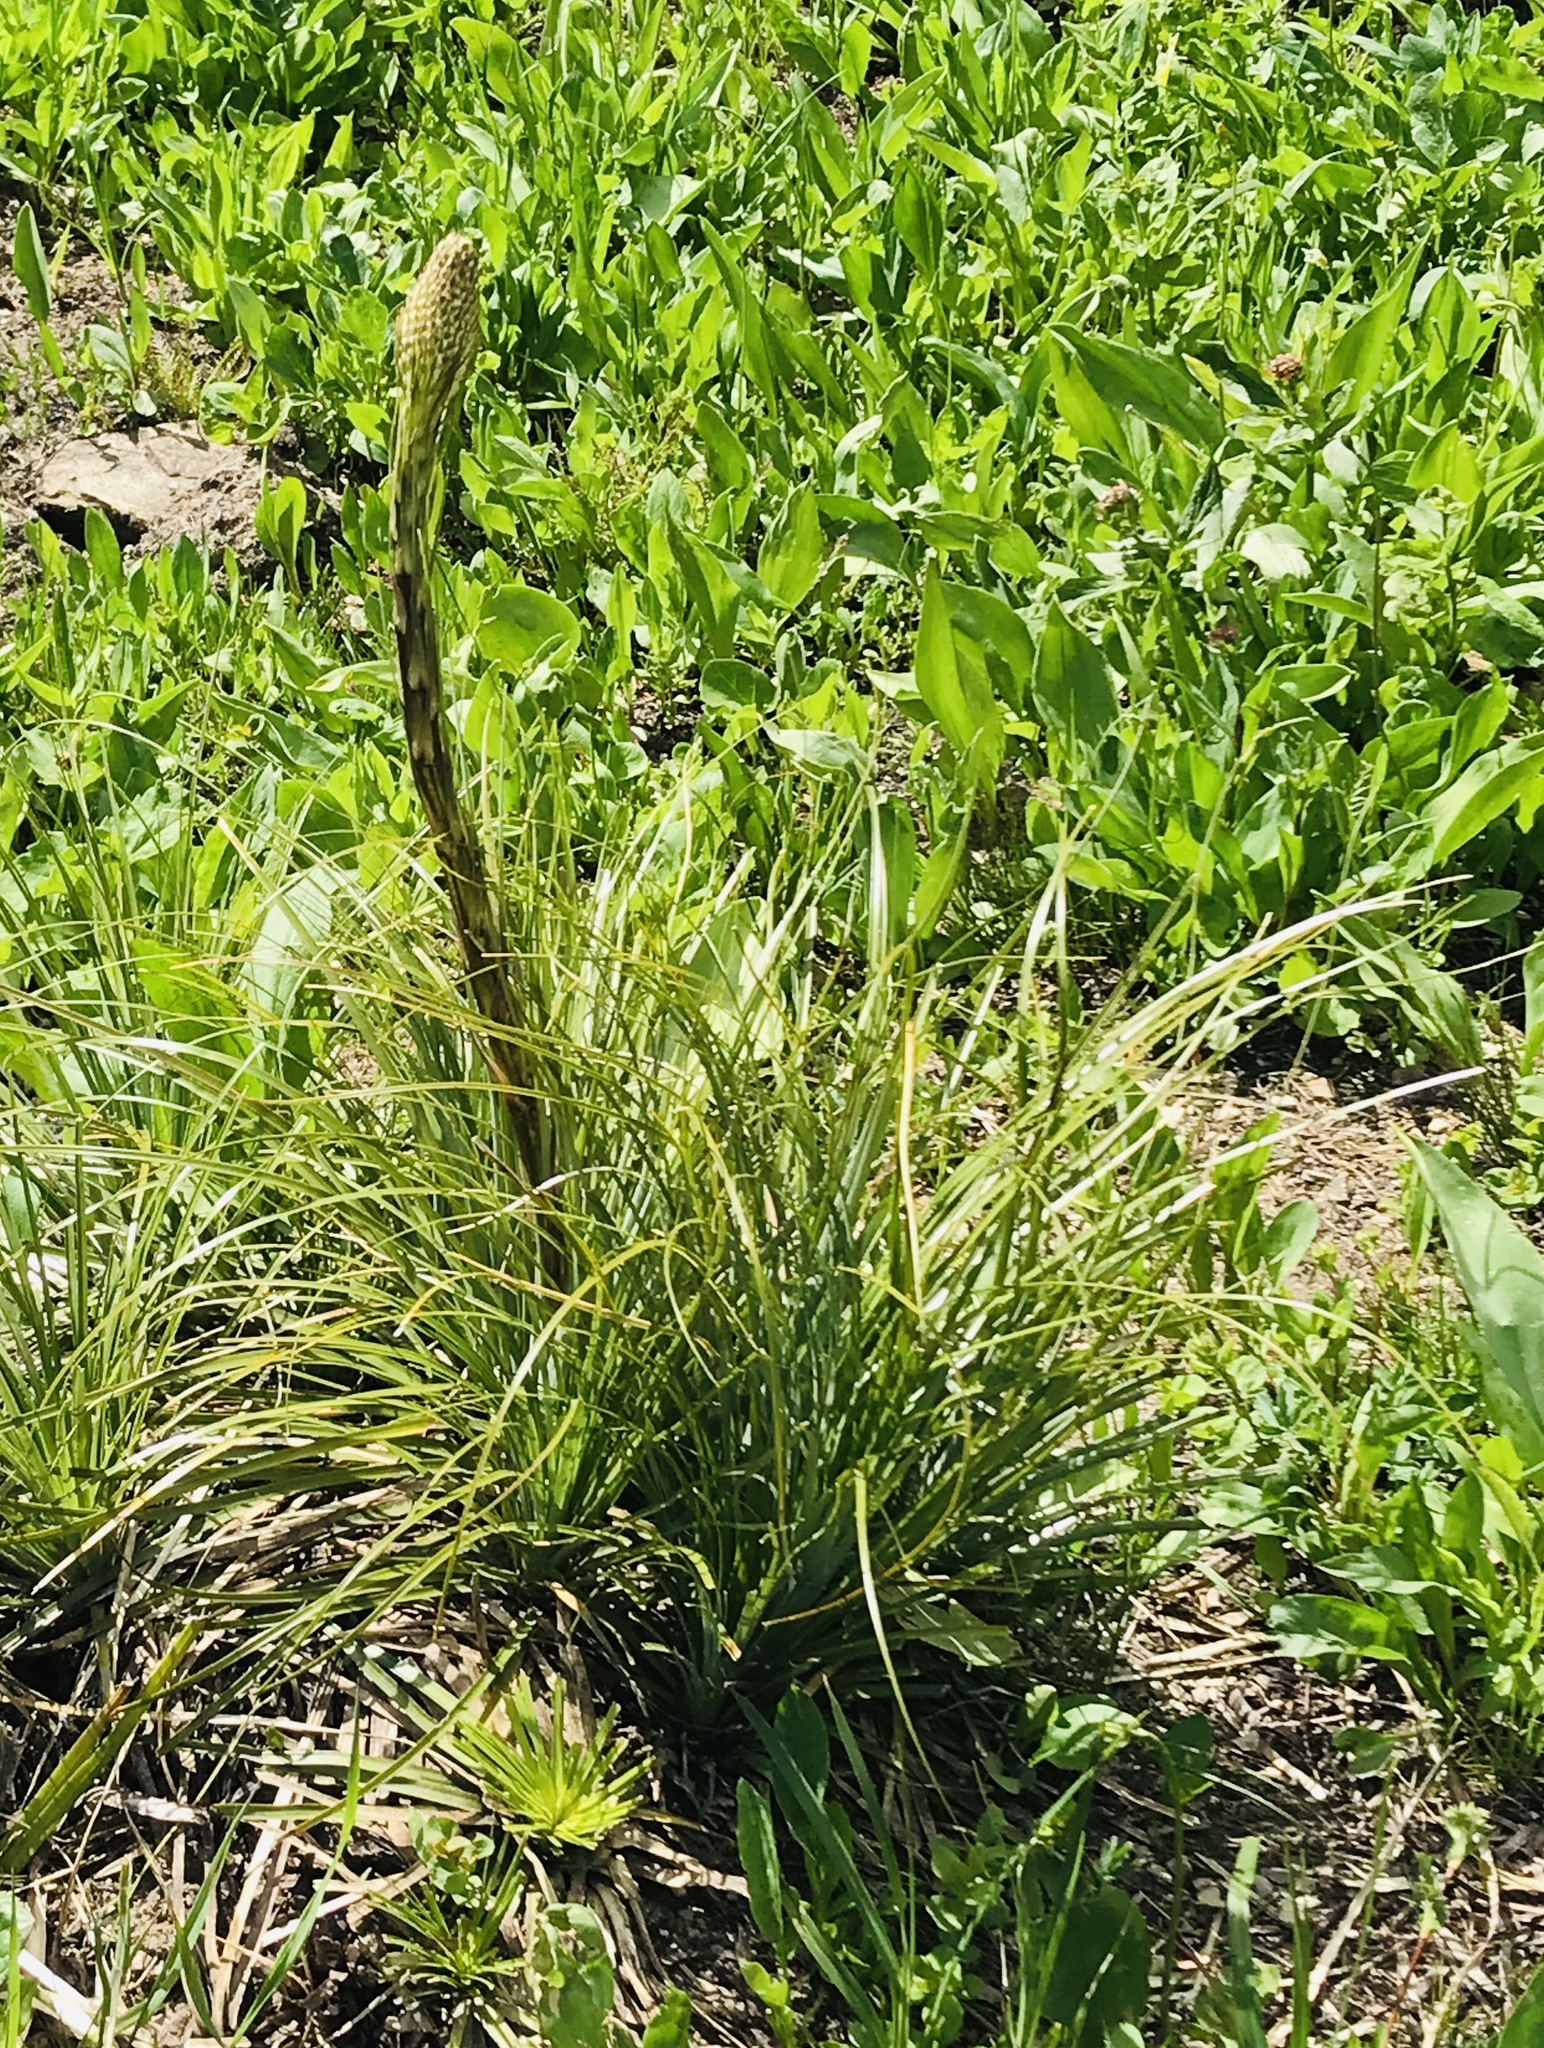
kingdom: Plantae
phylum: Tracheophyta
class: Liliopsida
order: Liliales
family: Melanthiaceae
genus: Xerophyllum
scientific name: Xerophyllum tenax
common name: Bear-grass
